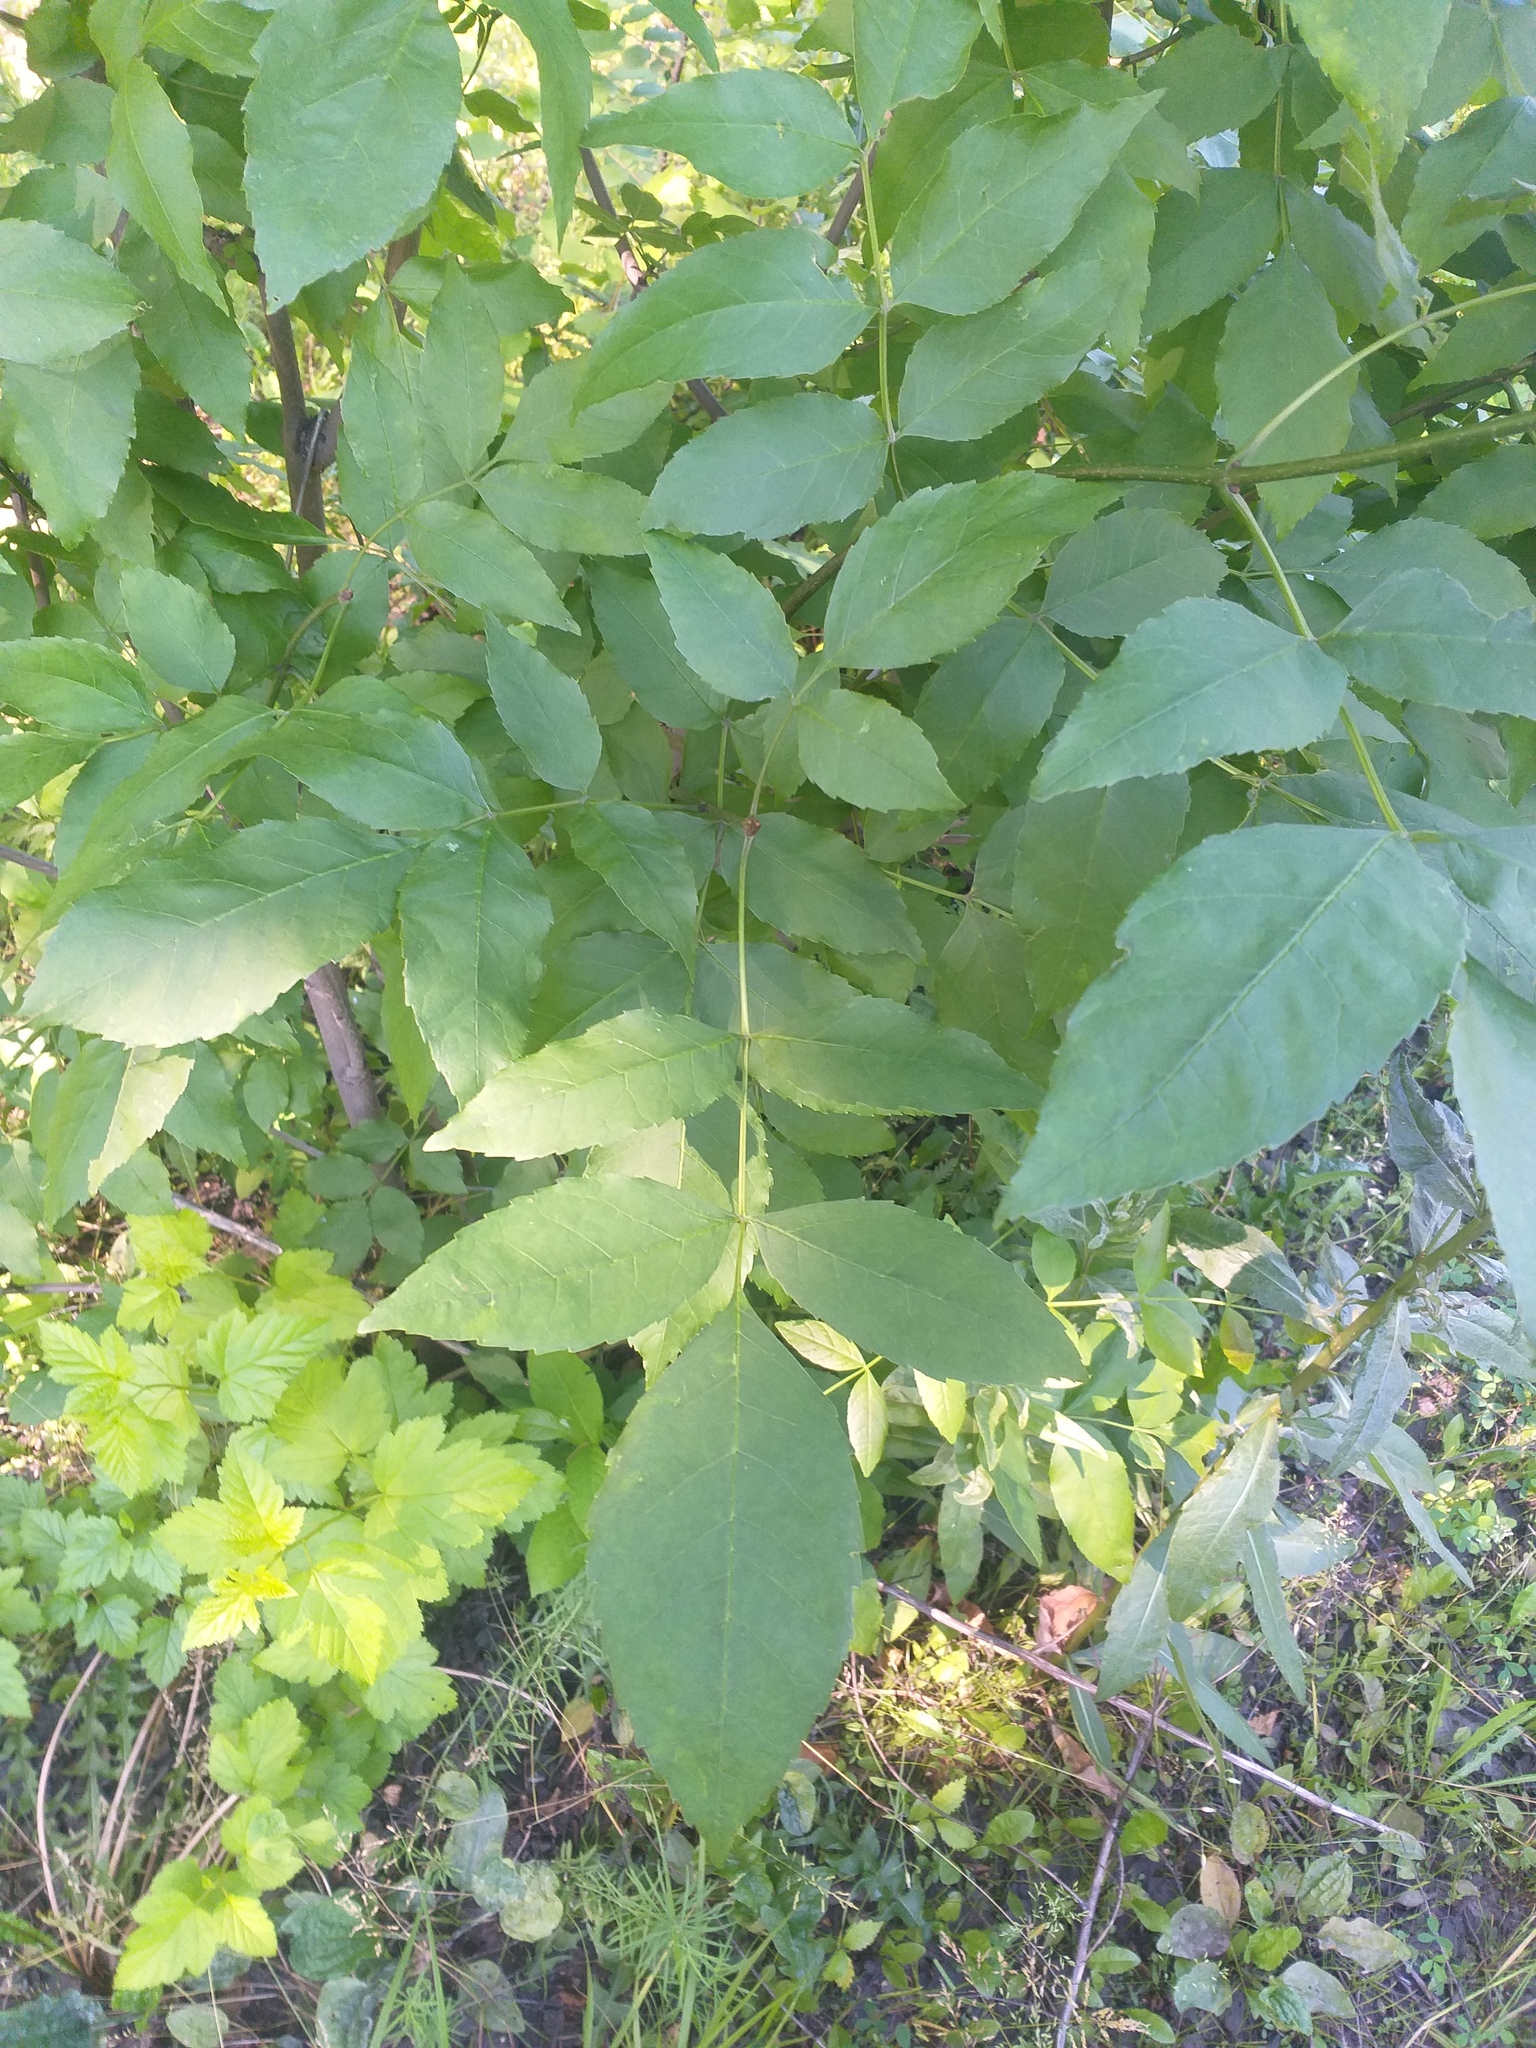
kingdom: Plantae
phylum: Tracheophyta
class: Magnoliopsida
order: Lamiales
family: Oleaceae
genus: Fraxinus
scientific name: Fraxinus pennsylvanica
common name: Green ash
